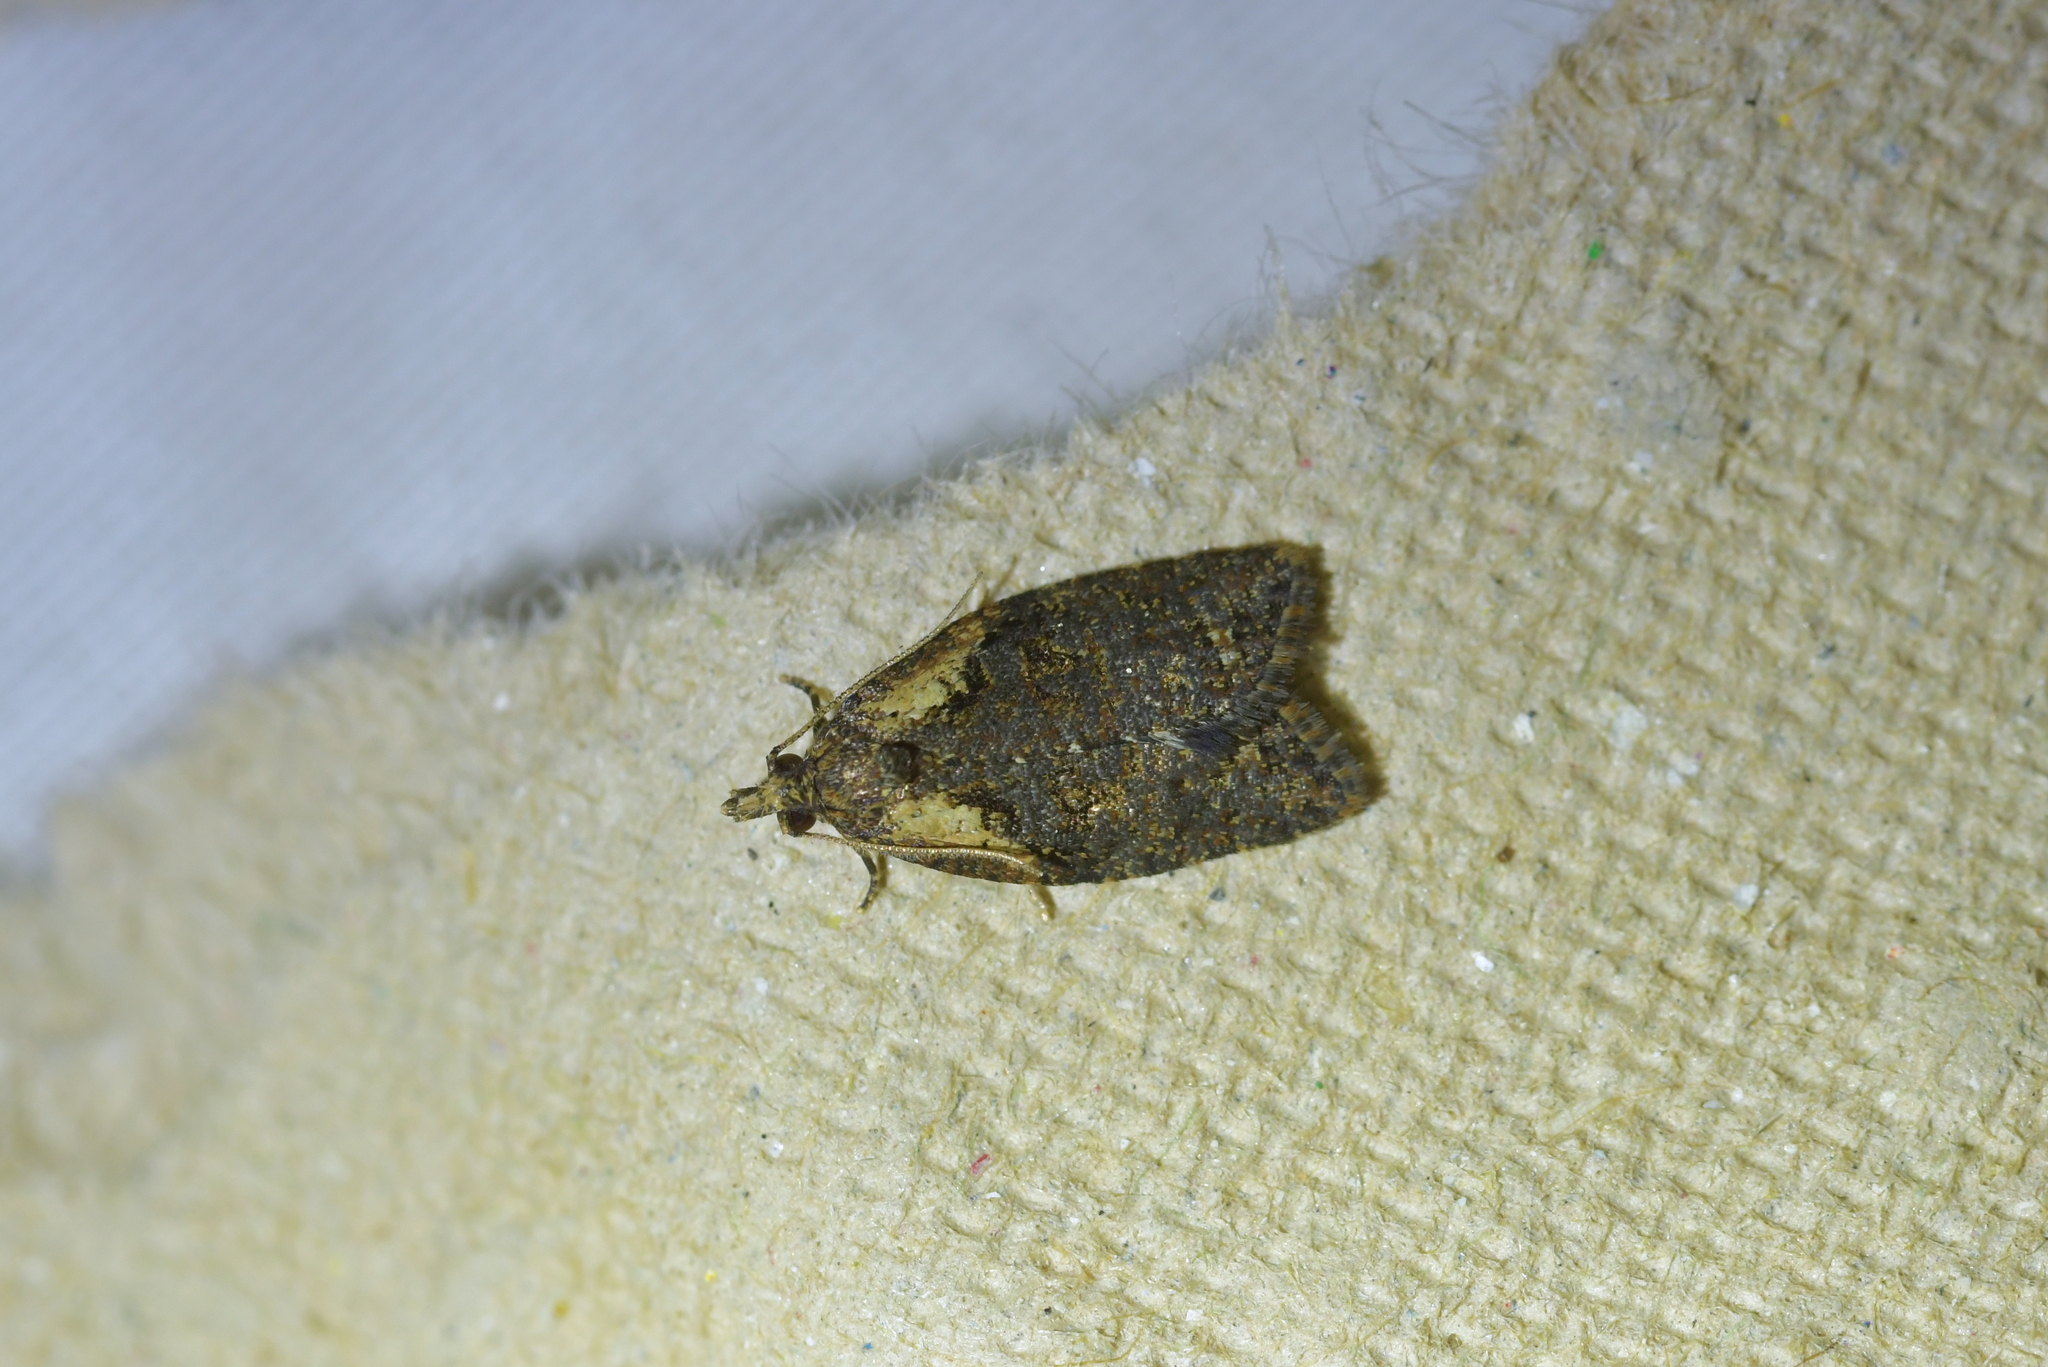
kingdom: Animalia
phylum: Arthropoda
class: Insecta
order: Lepidoptera
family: Tortricidae
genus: Capua
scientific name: Capua intractana
